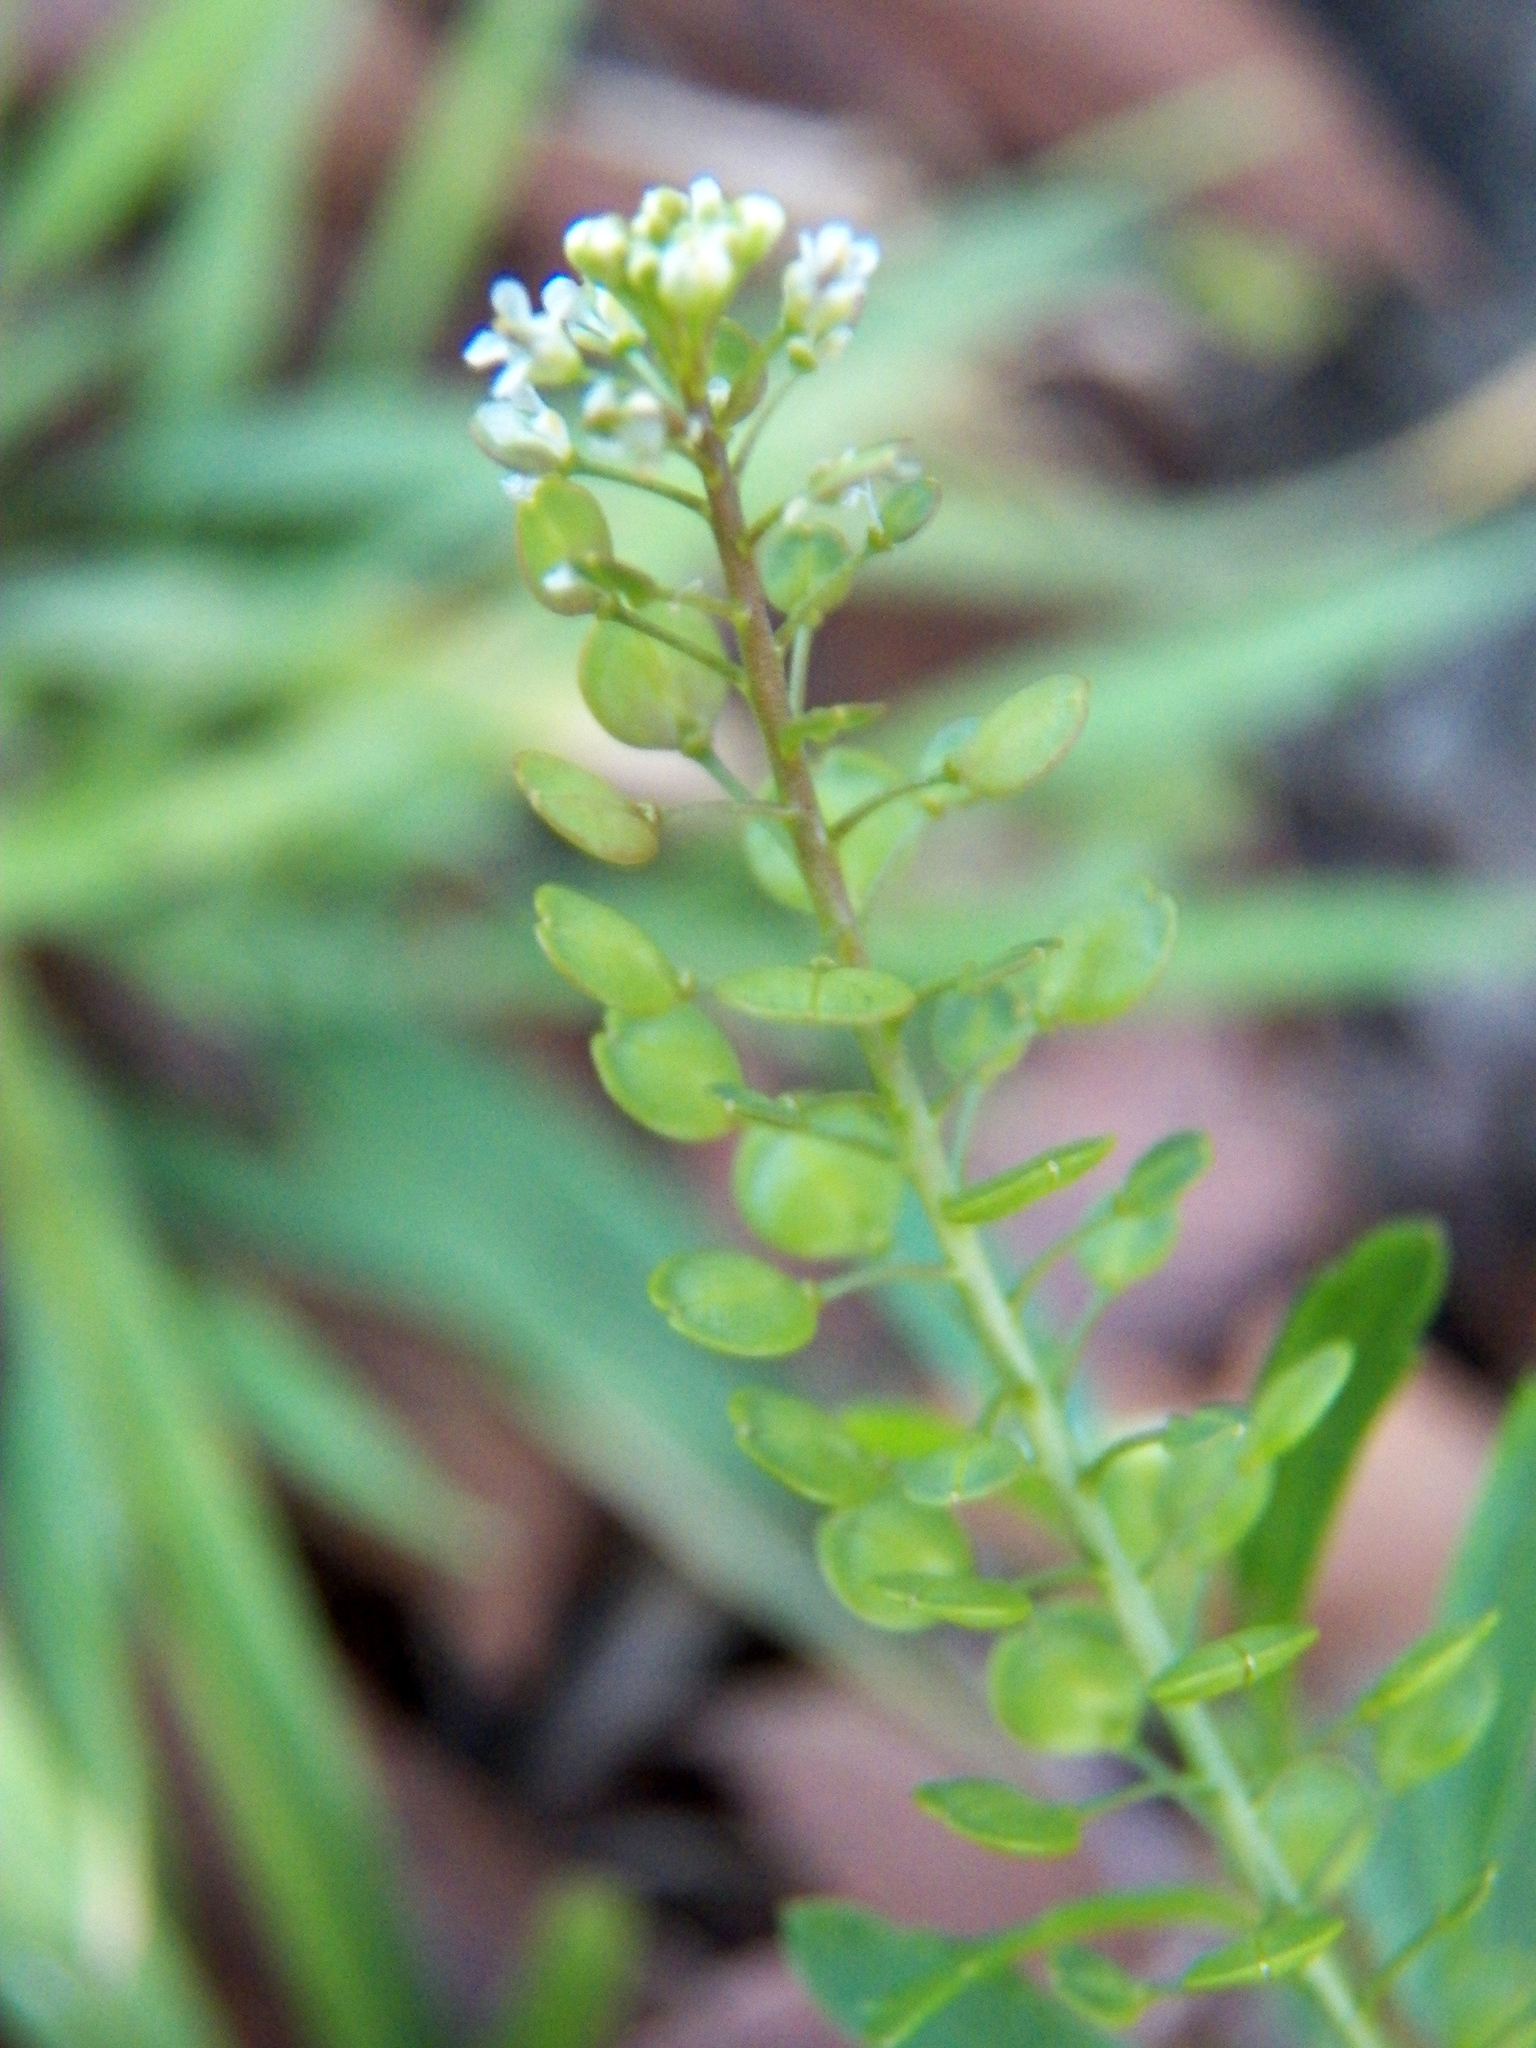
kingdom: Plantae
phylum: Tracheophyta
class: Magnoliopsida
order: Brassicales
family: Brassicaceae
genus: Lepidium
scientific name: Lepidium virginicum
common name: Least pepperwort
